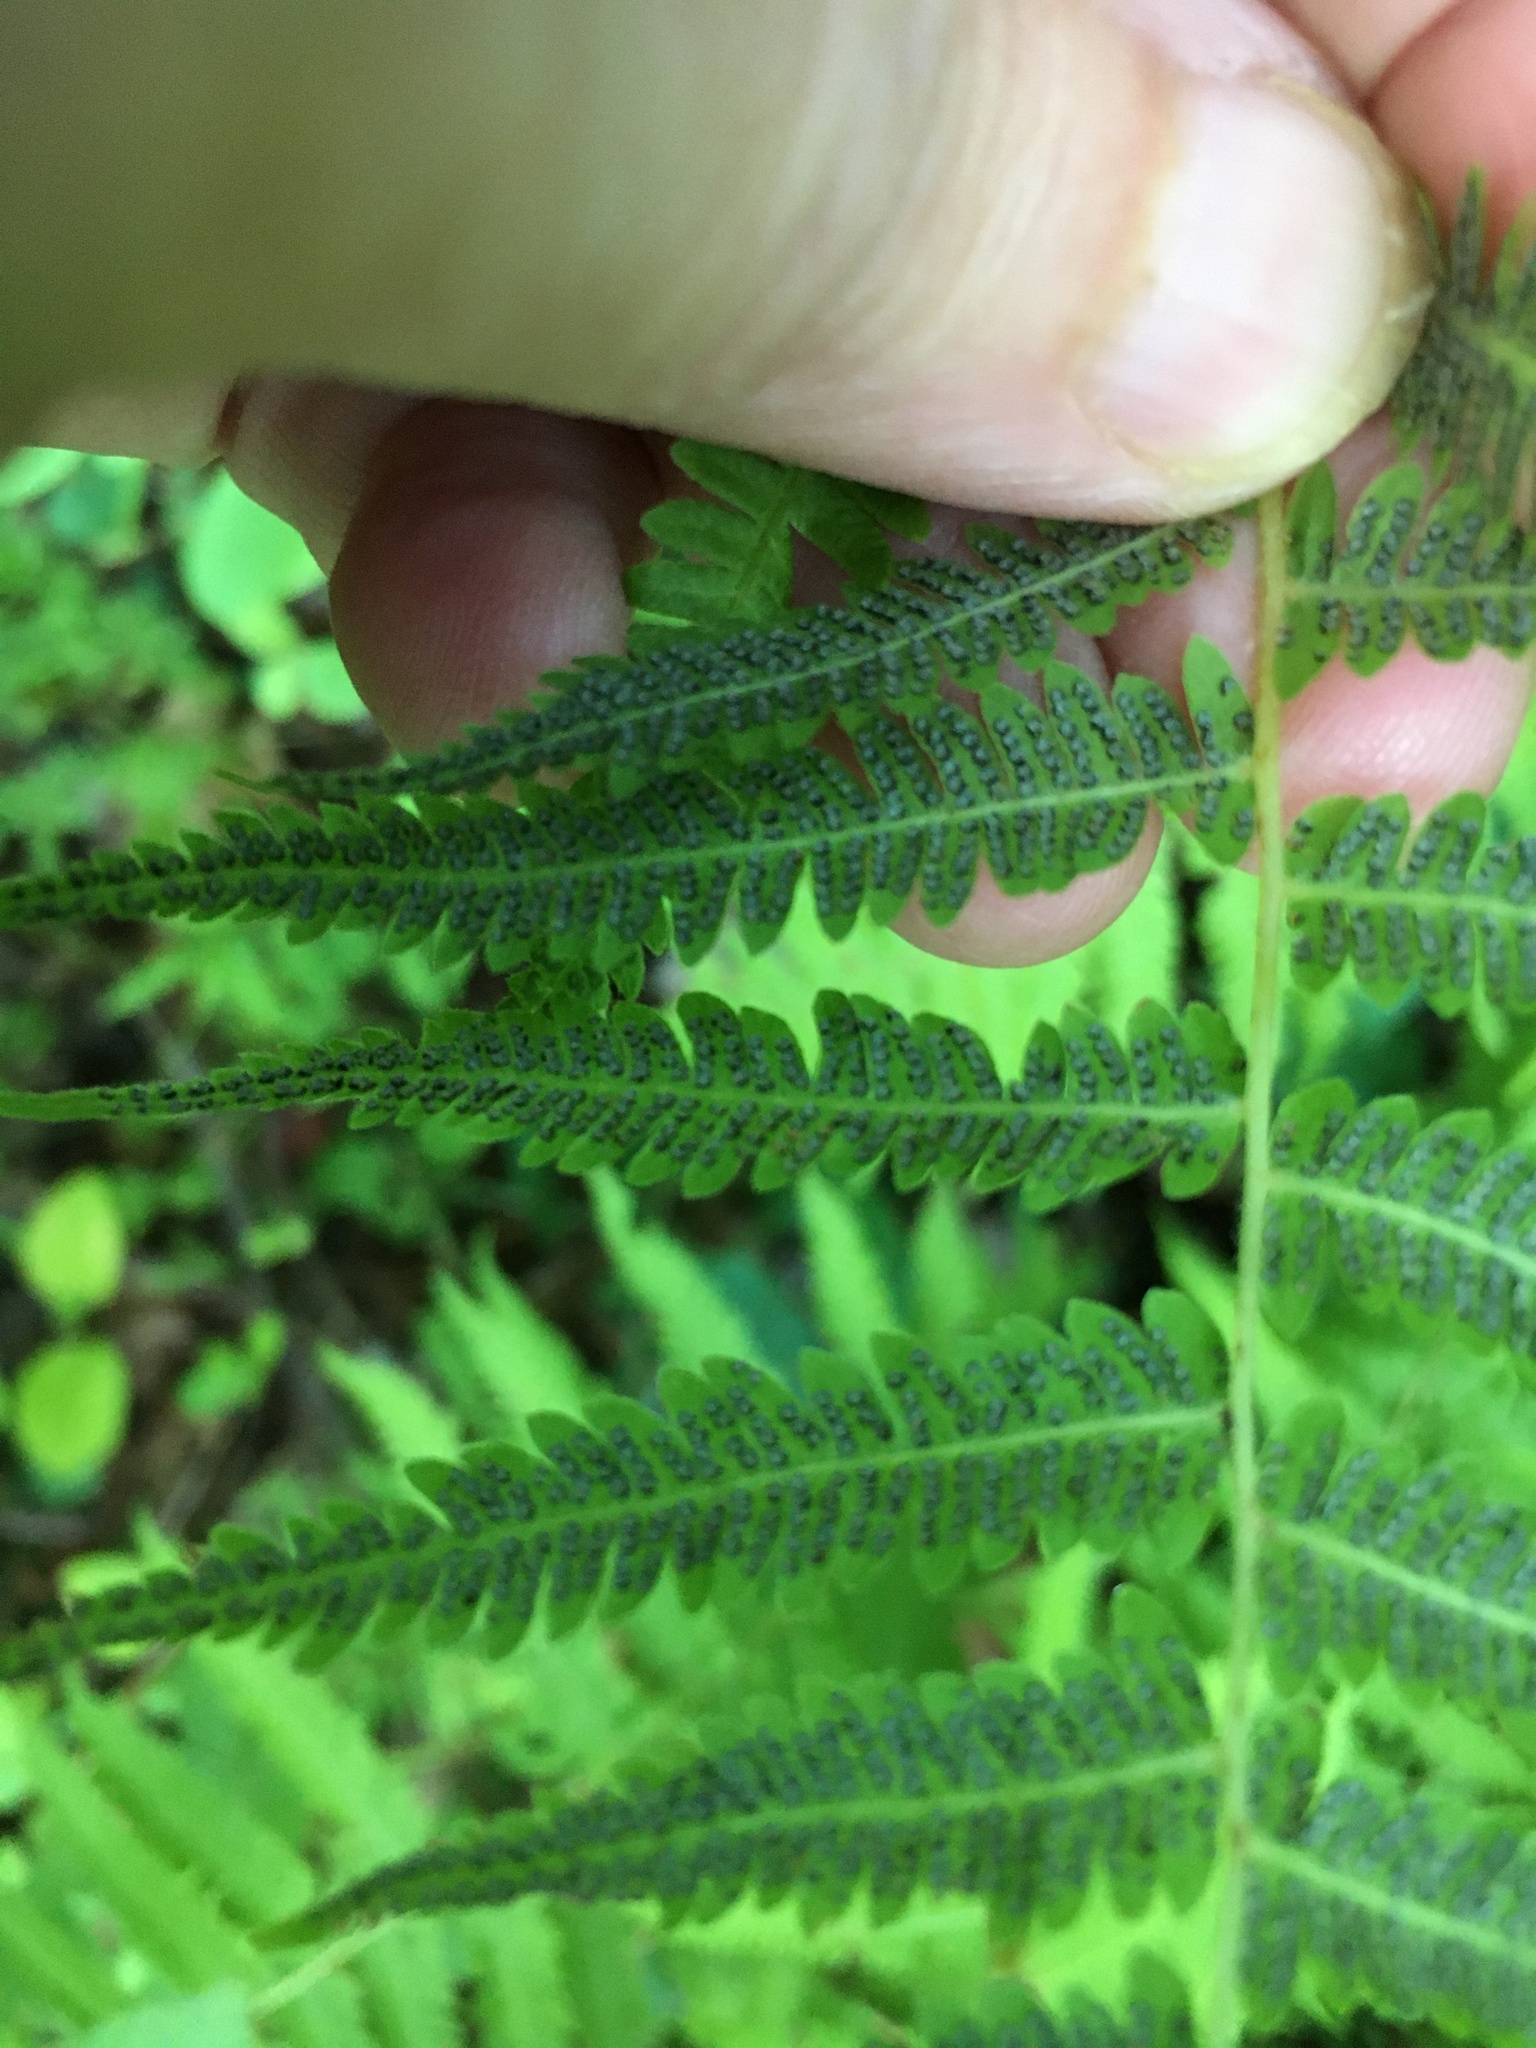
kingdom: Plantae
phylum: Tracheophyta
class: Polypodiopsida
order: Polypodiales
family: Thelypteridaceae
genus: Amauropelta
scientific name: Amauropelta noveboracensis
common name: New york fern
